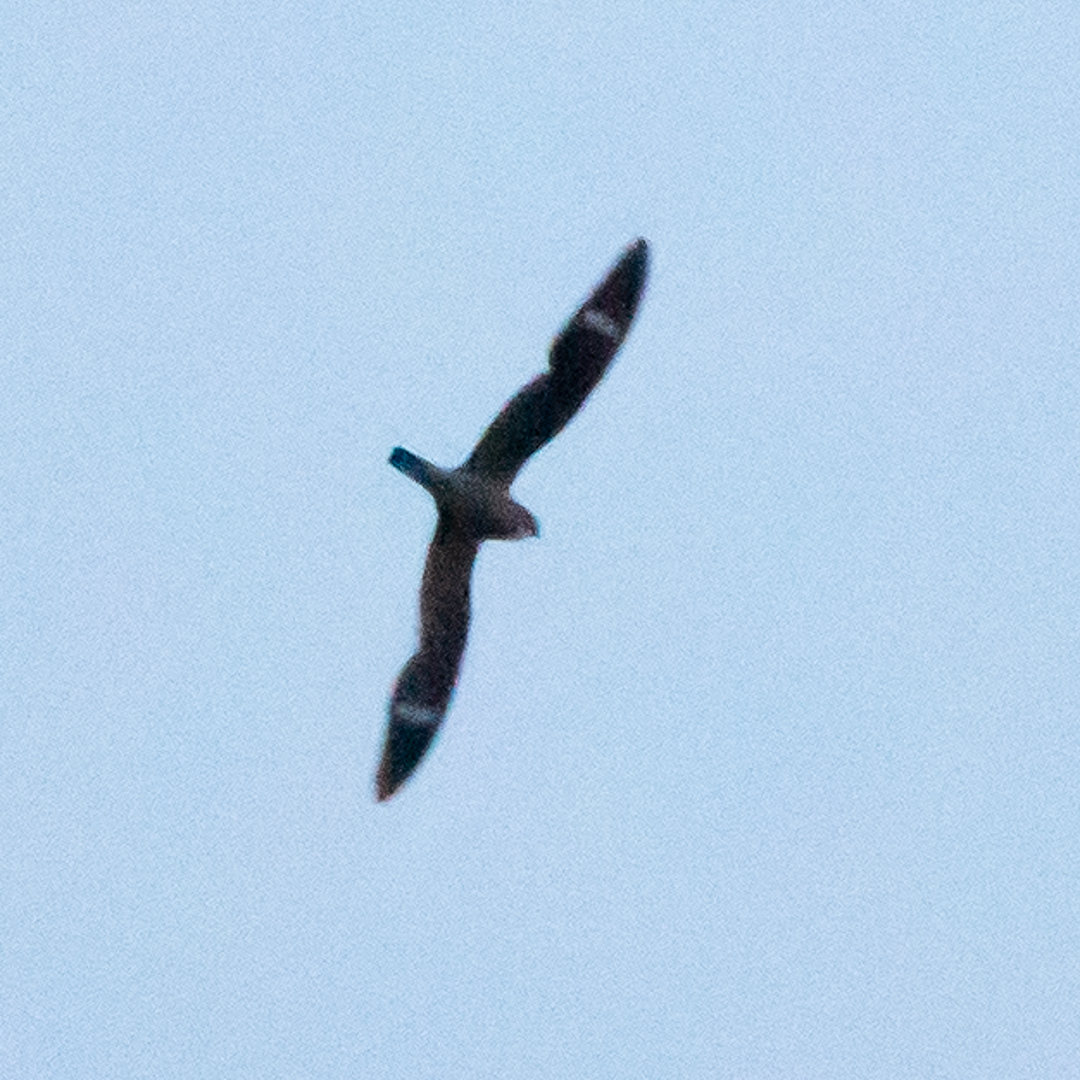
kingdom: Animalia
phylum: Chordata
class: Aves
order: Caprimulgiformes
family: Caprimulgidae
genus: Chordeiles
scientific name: Chordeiles minor
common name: Common nighthawk
